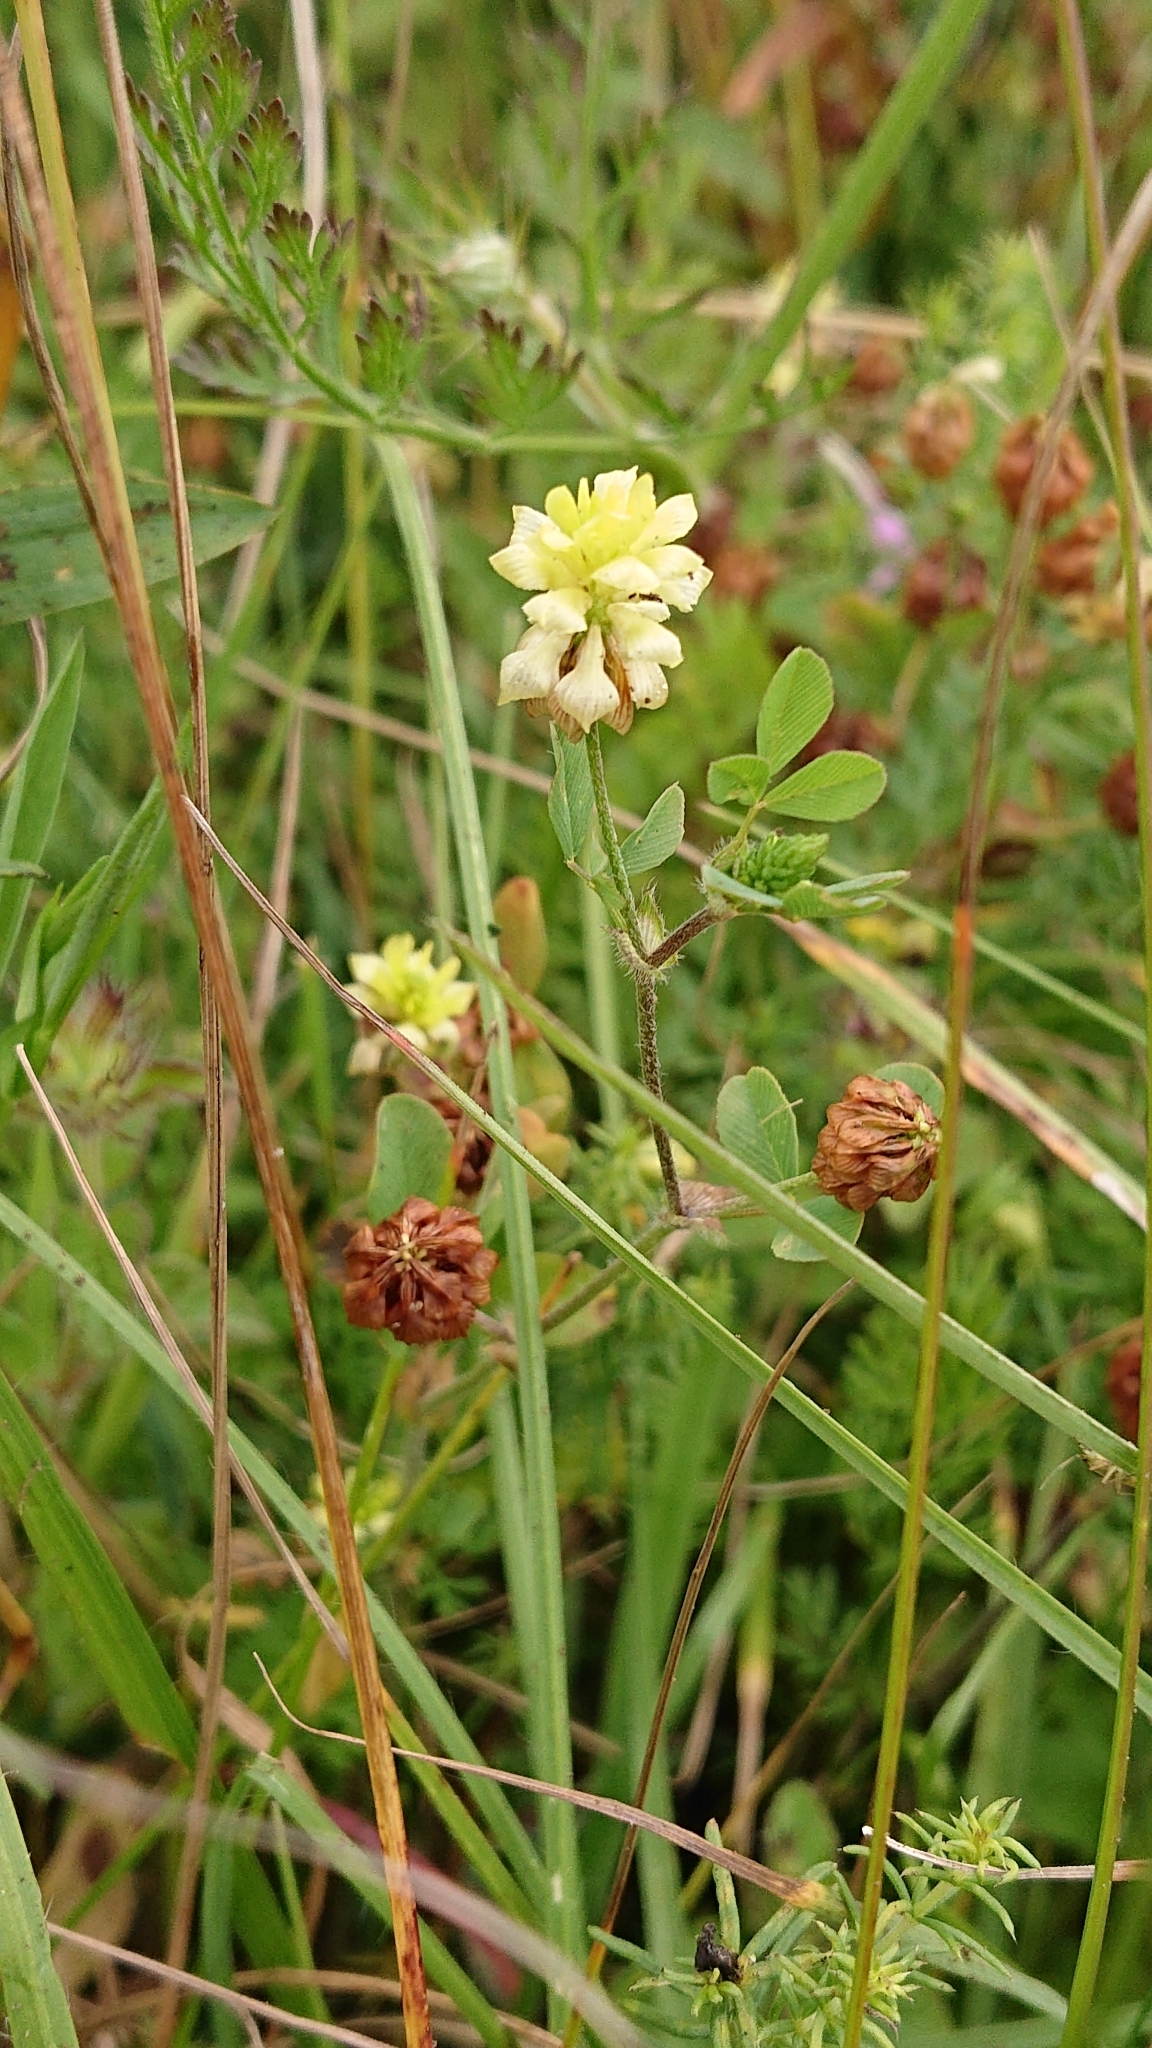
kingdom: Plantae
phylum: Tracheophyta
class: Magnoliopsida
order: Fabales
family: Fabaceae
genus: Trifolium
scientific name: Trifolium campestre
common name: Field clover
